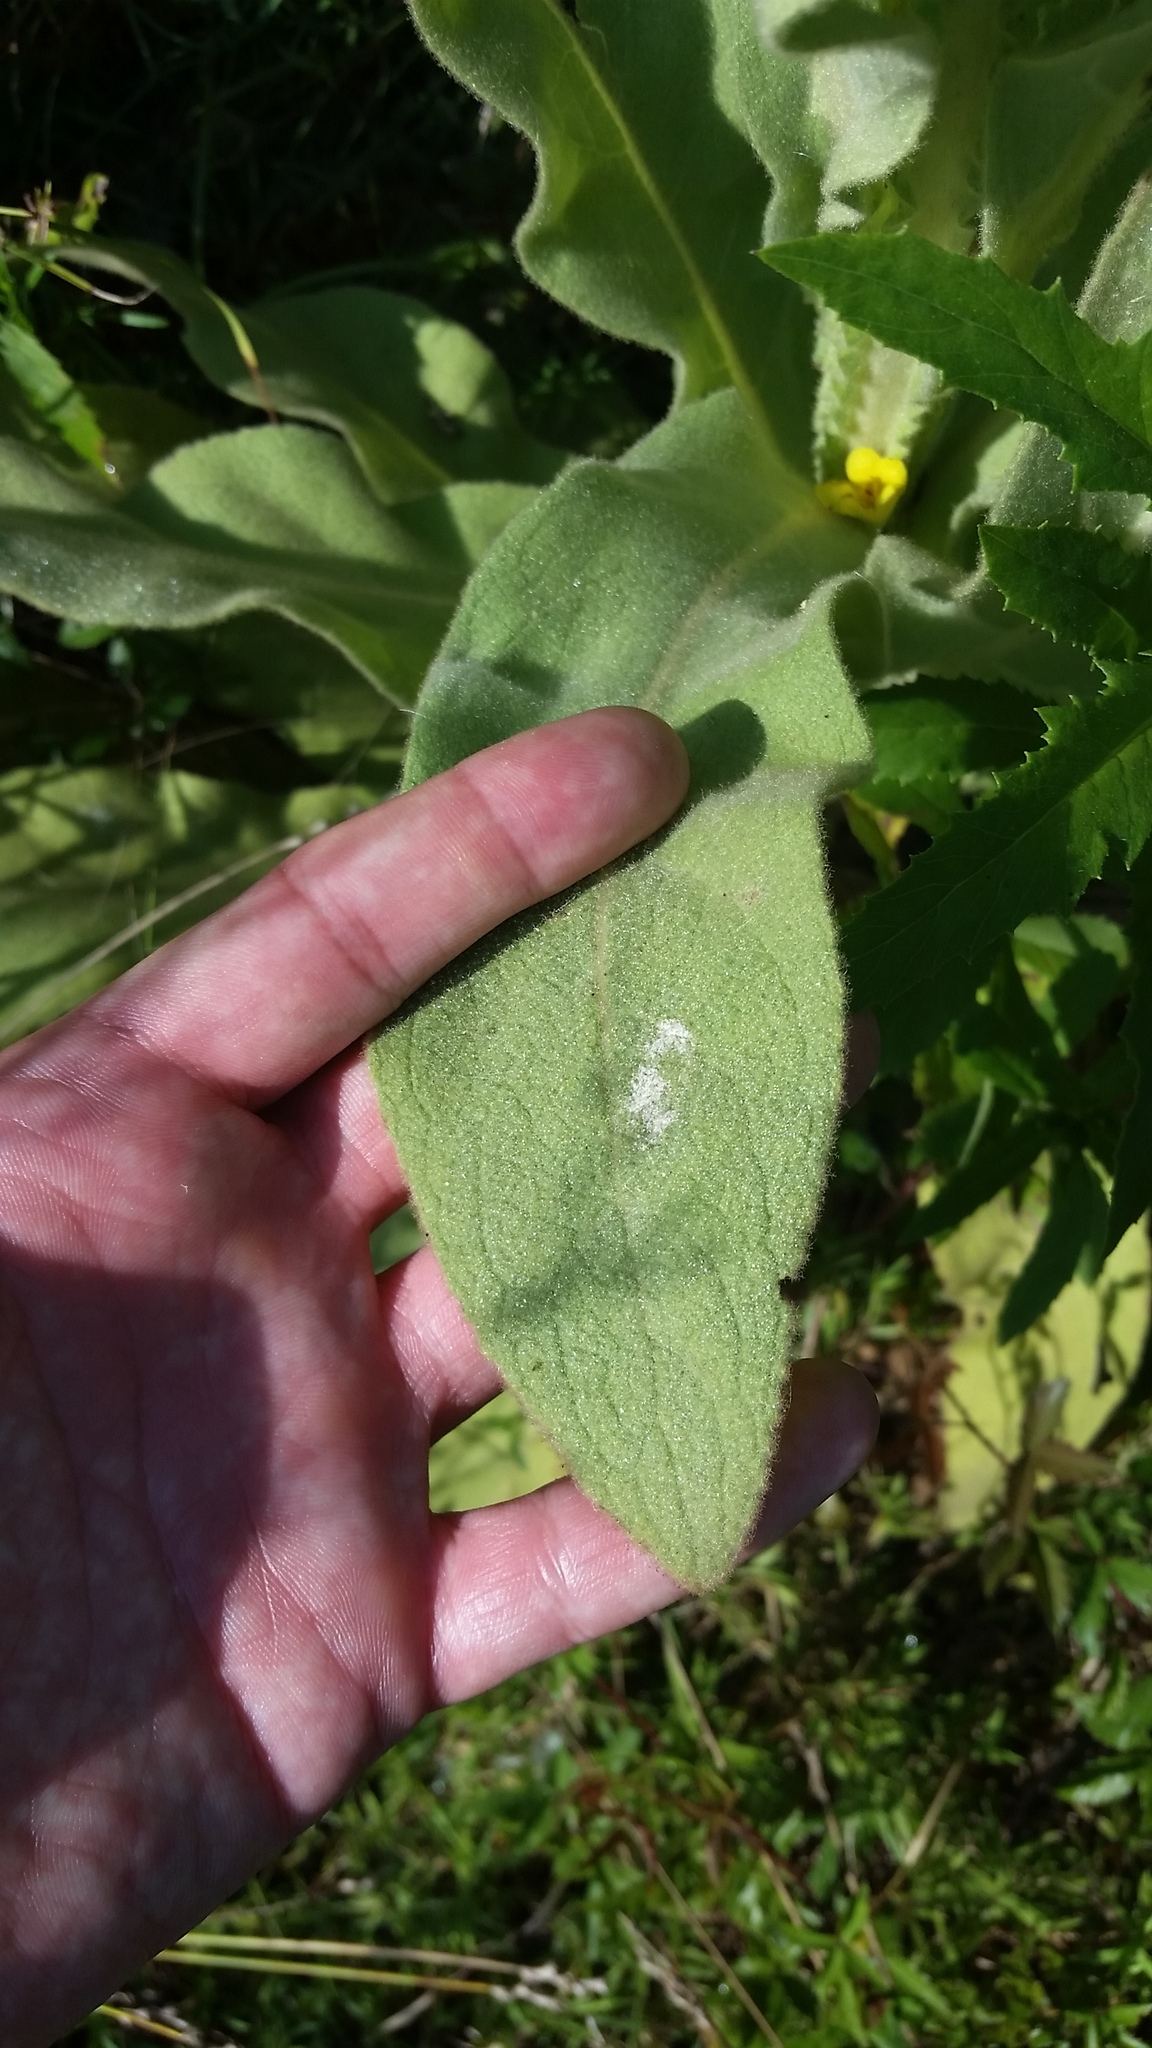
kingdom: Plantae
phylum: Tracheophyta
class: Magnoliopsida
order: Lamiales
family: Scrophulariaceae
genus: Verbascum
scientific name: Verbascum thapsus
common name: Common mullein
